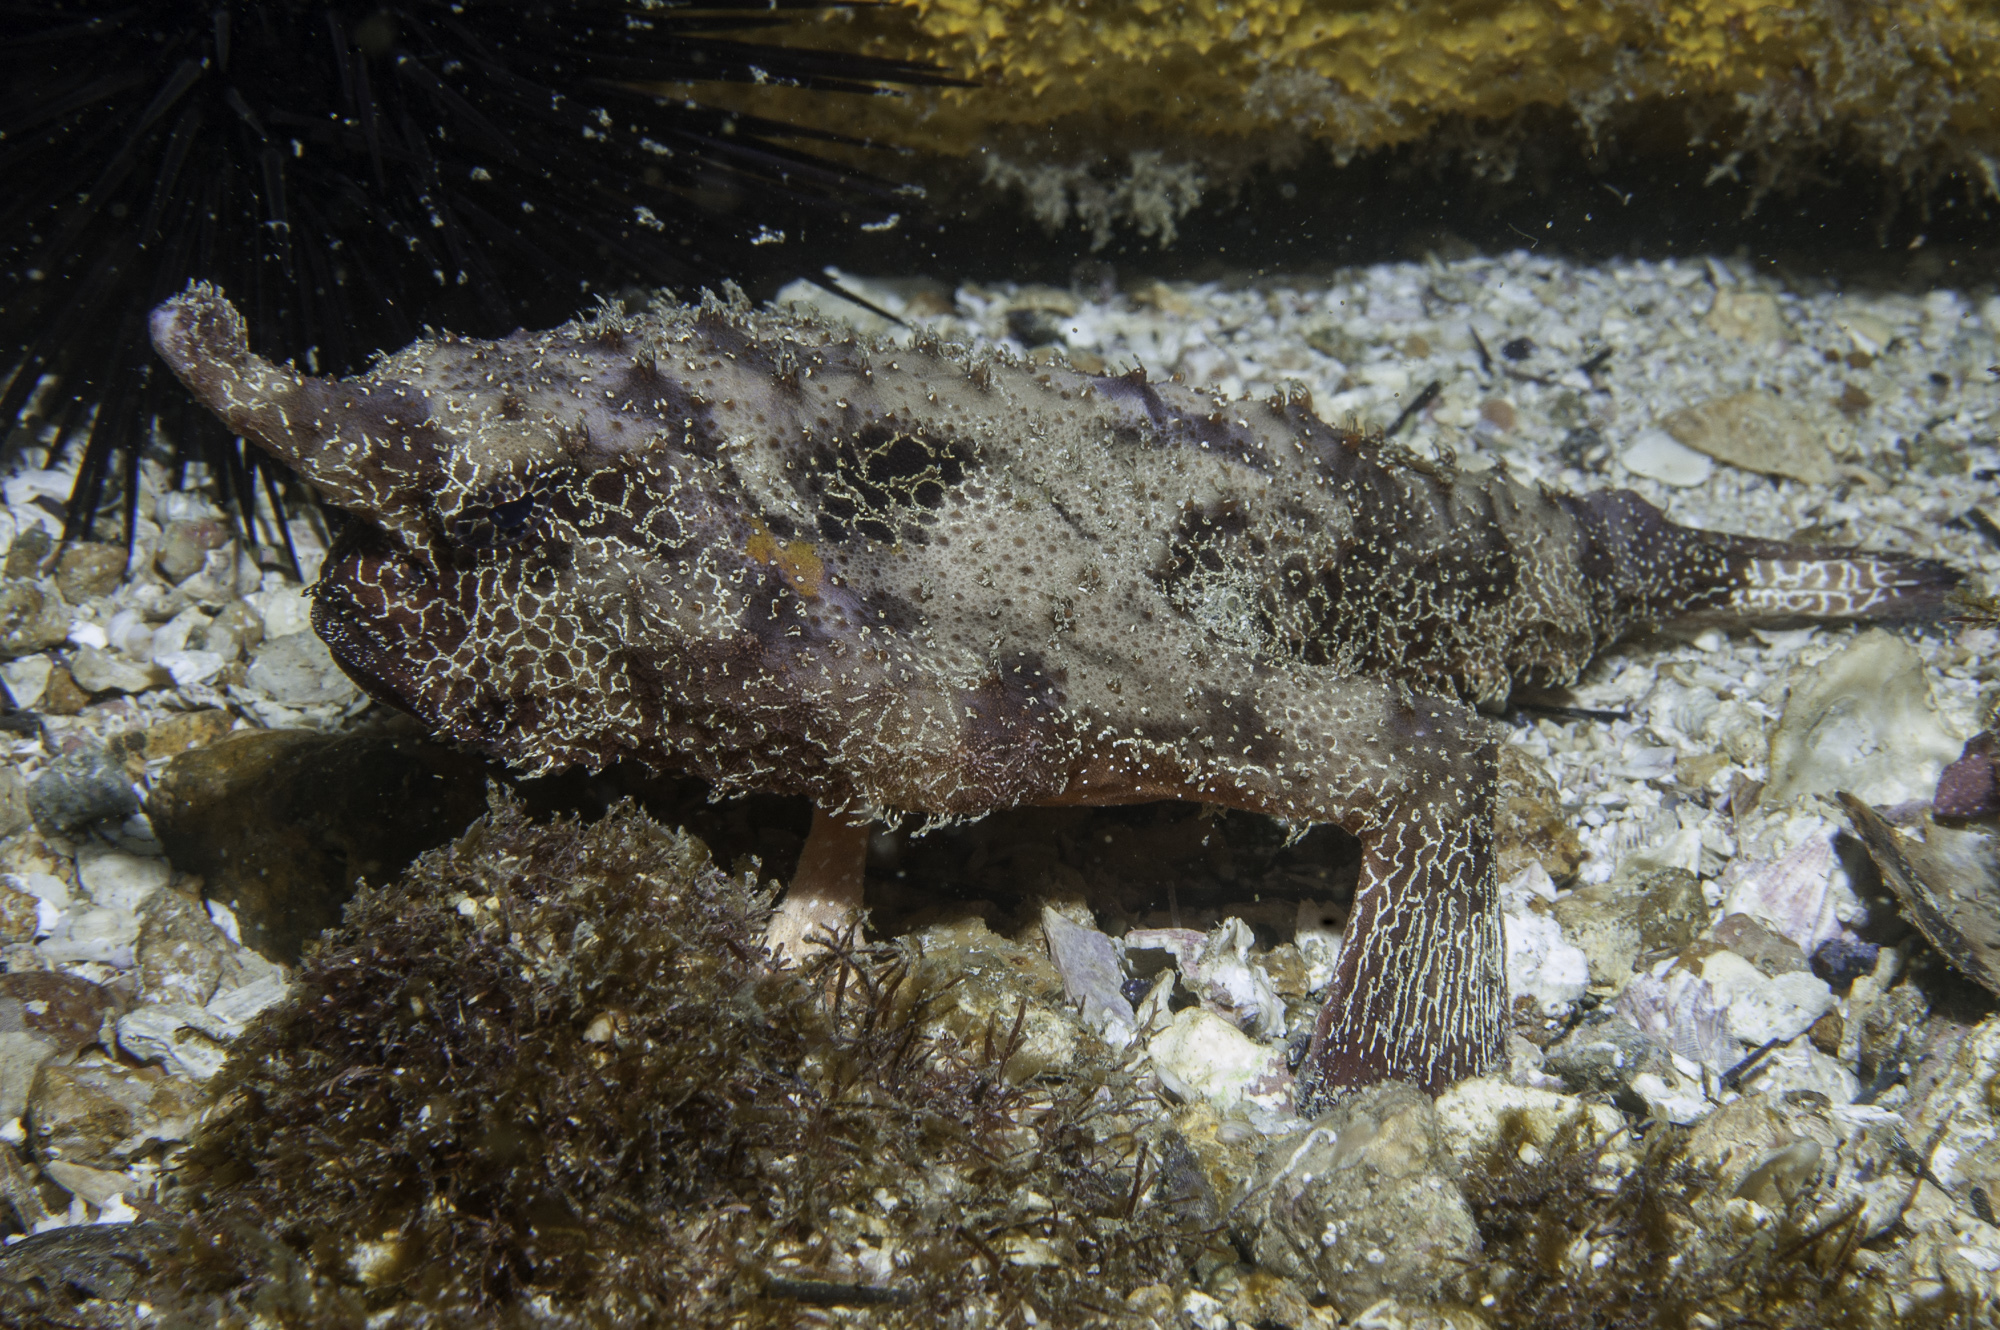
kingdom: Animalia
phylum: Chordata
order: Lophiiformes
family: Ogcocephalidae
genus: Ogcocephalus
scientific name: Ogcocephalus vespertilio
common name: Seadevil
